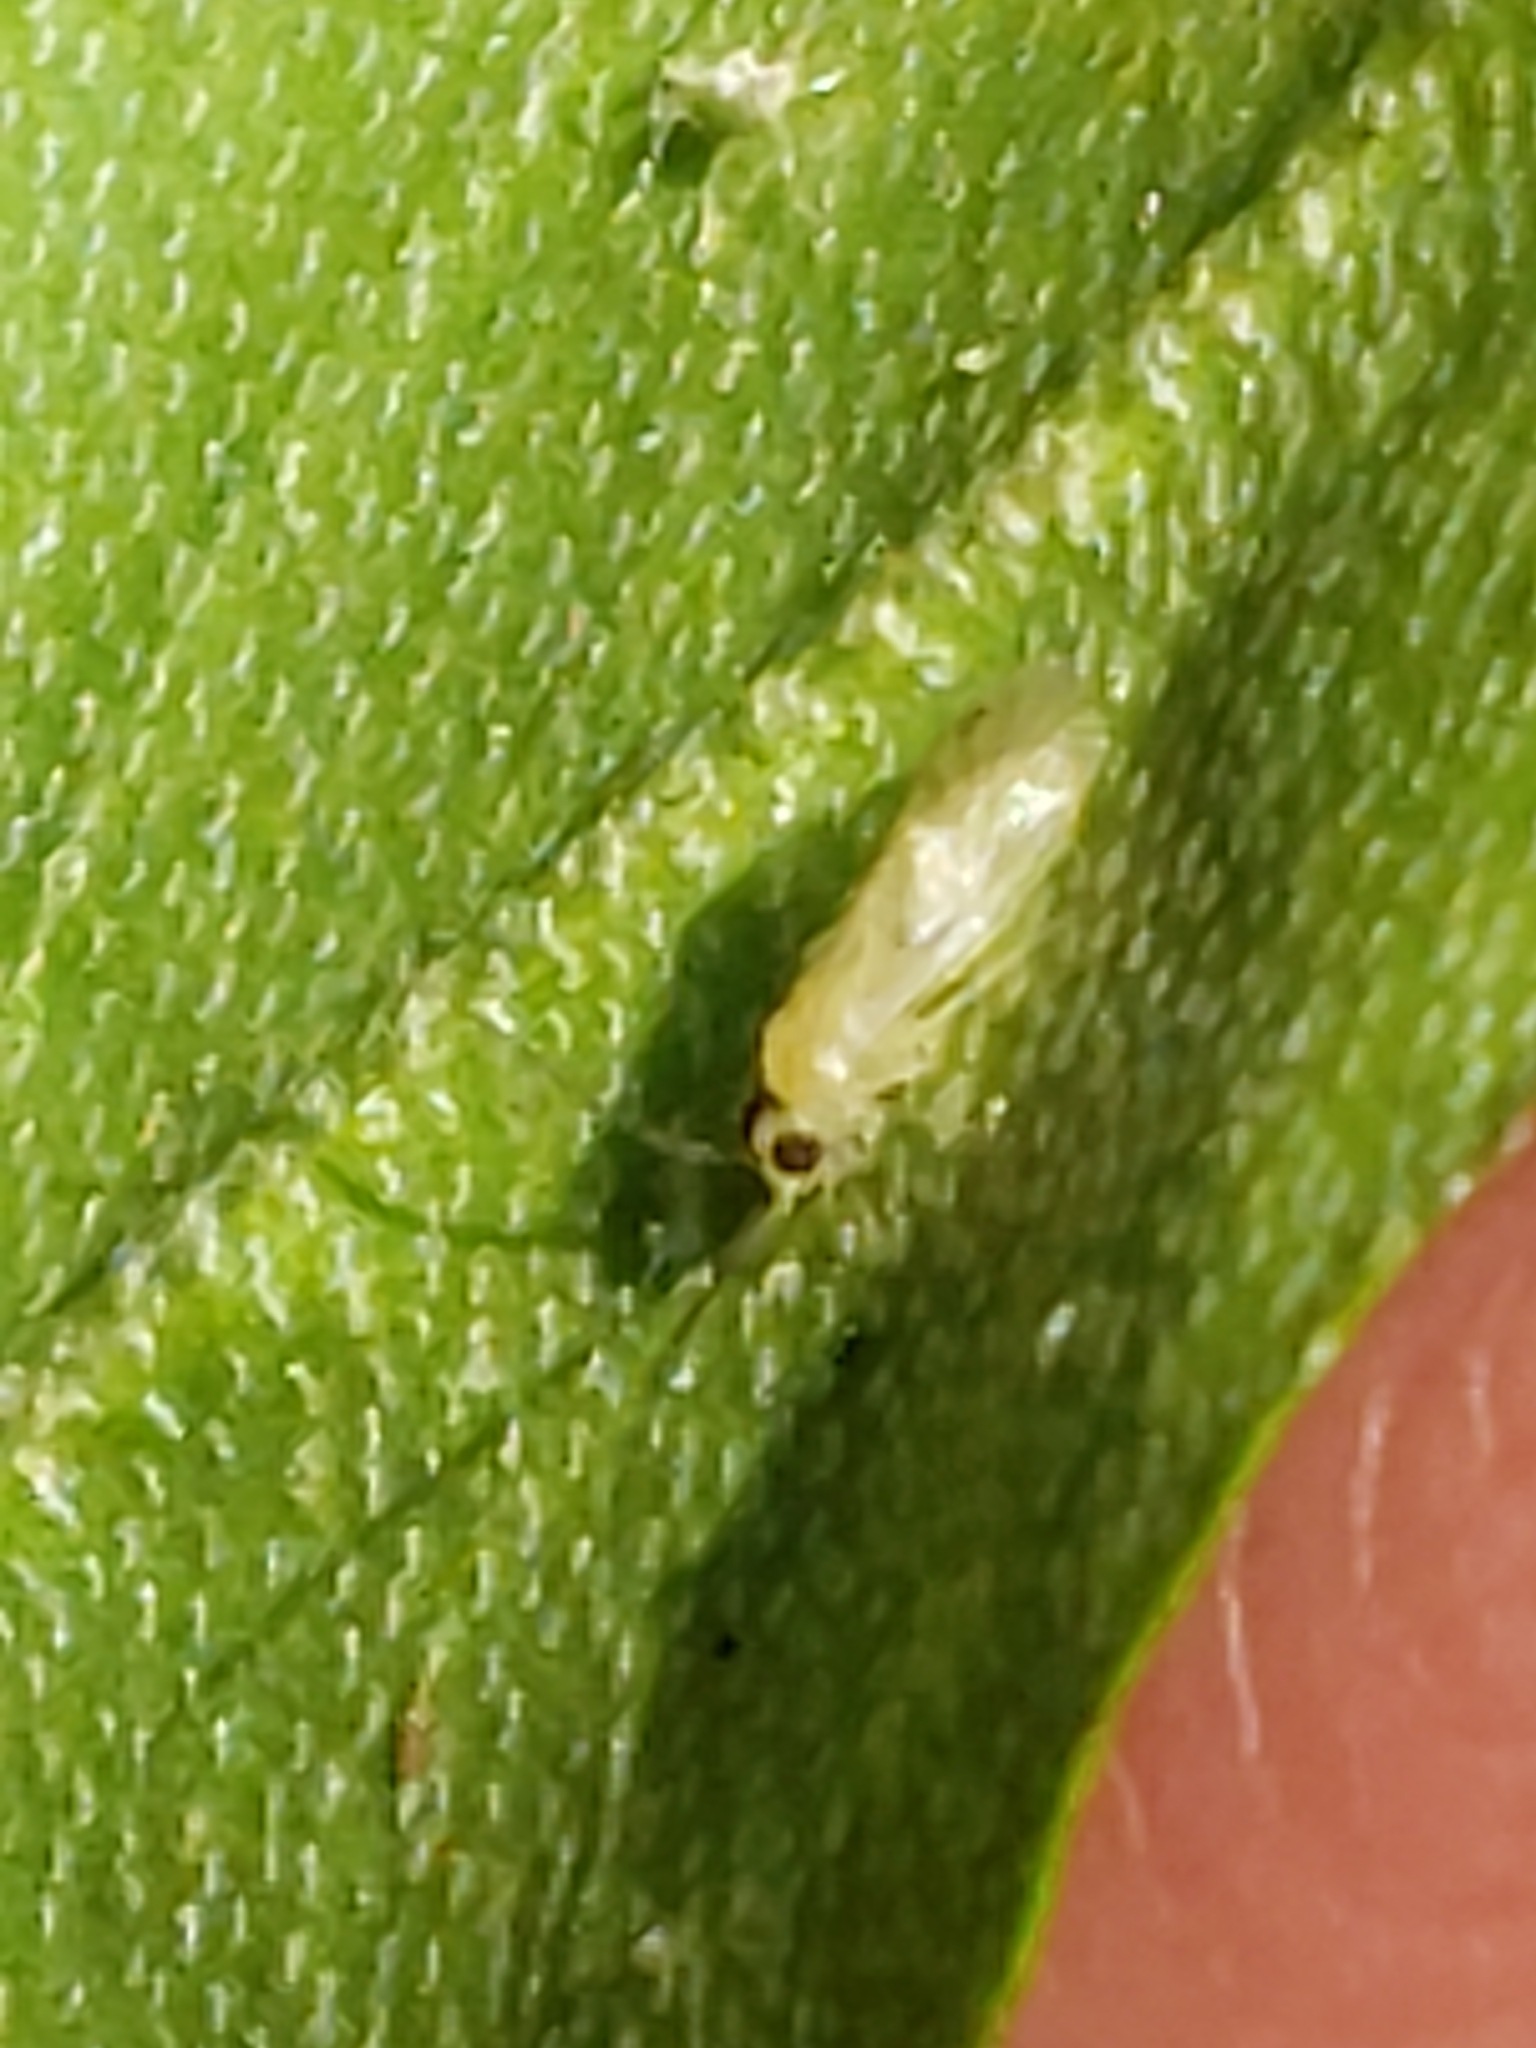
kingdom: Animalia
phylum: Arthropoda
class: Insecta
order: Psocodea
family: Caeciliusidae
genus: Valenzuela
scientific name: Valenzuela flavidus
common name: Yellow barklouse
